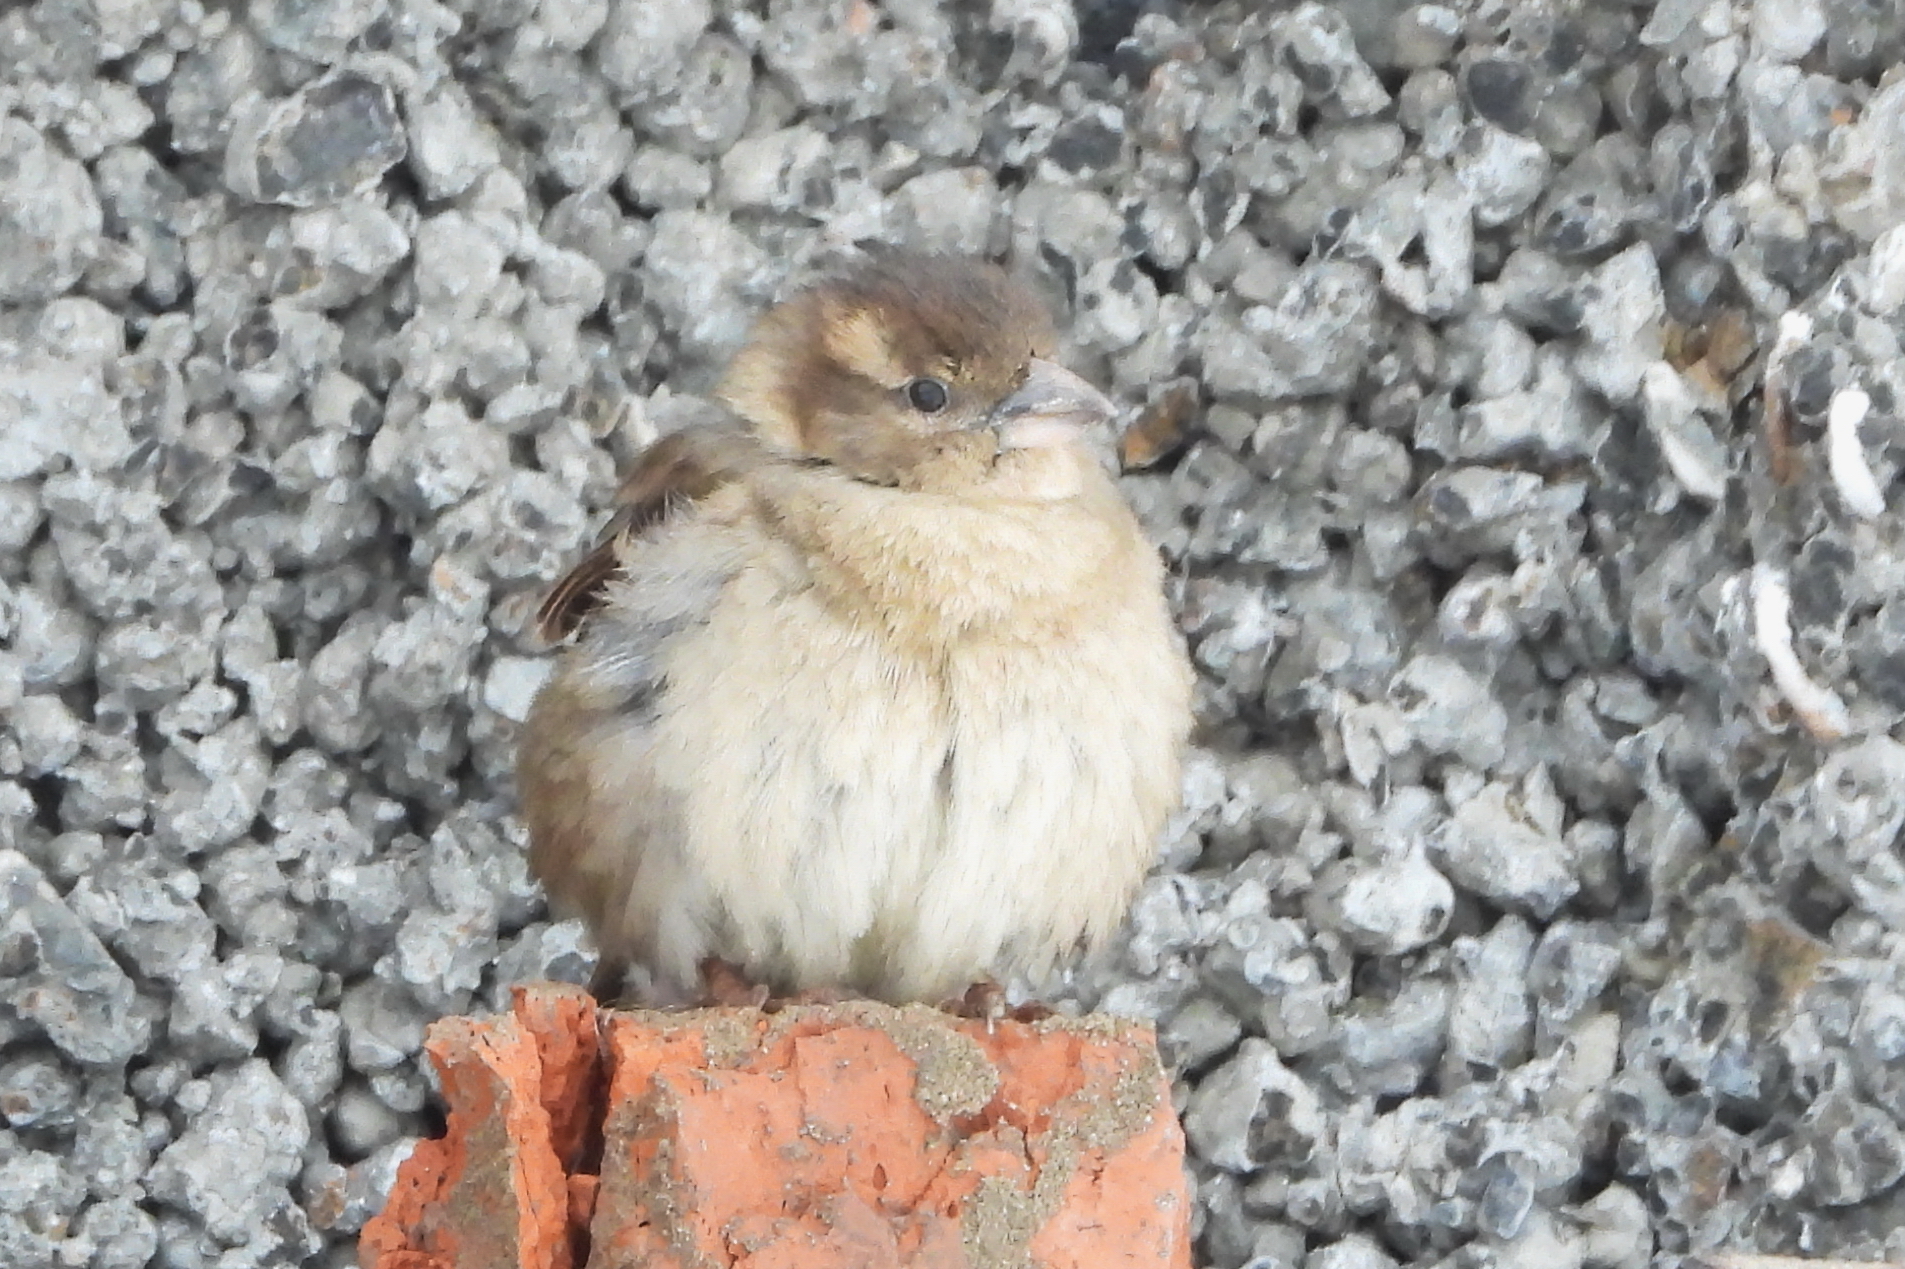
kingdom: Animalia
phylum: Chordata
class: Aves
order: Passeriformes
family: Passeridae
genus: Passer
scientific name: Passer domesticus
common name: House sparrow
